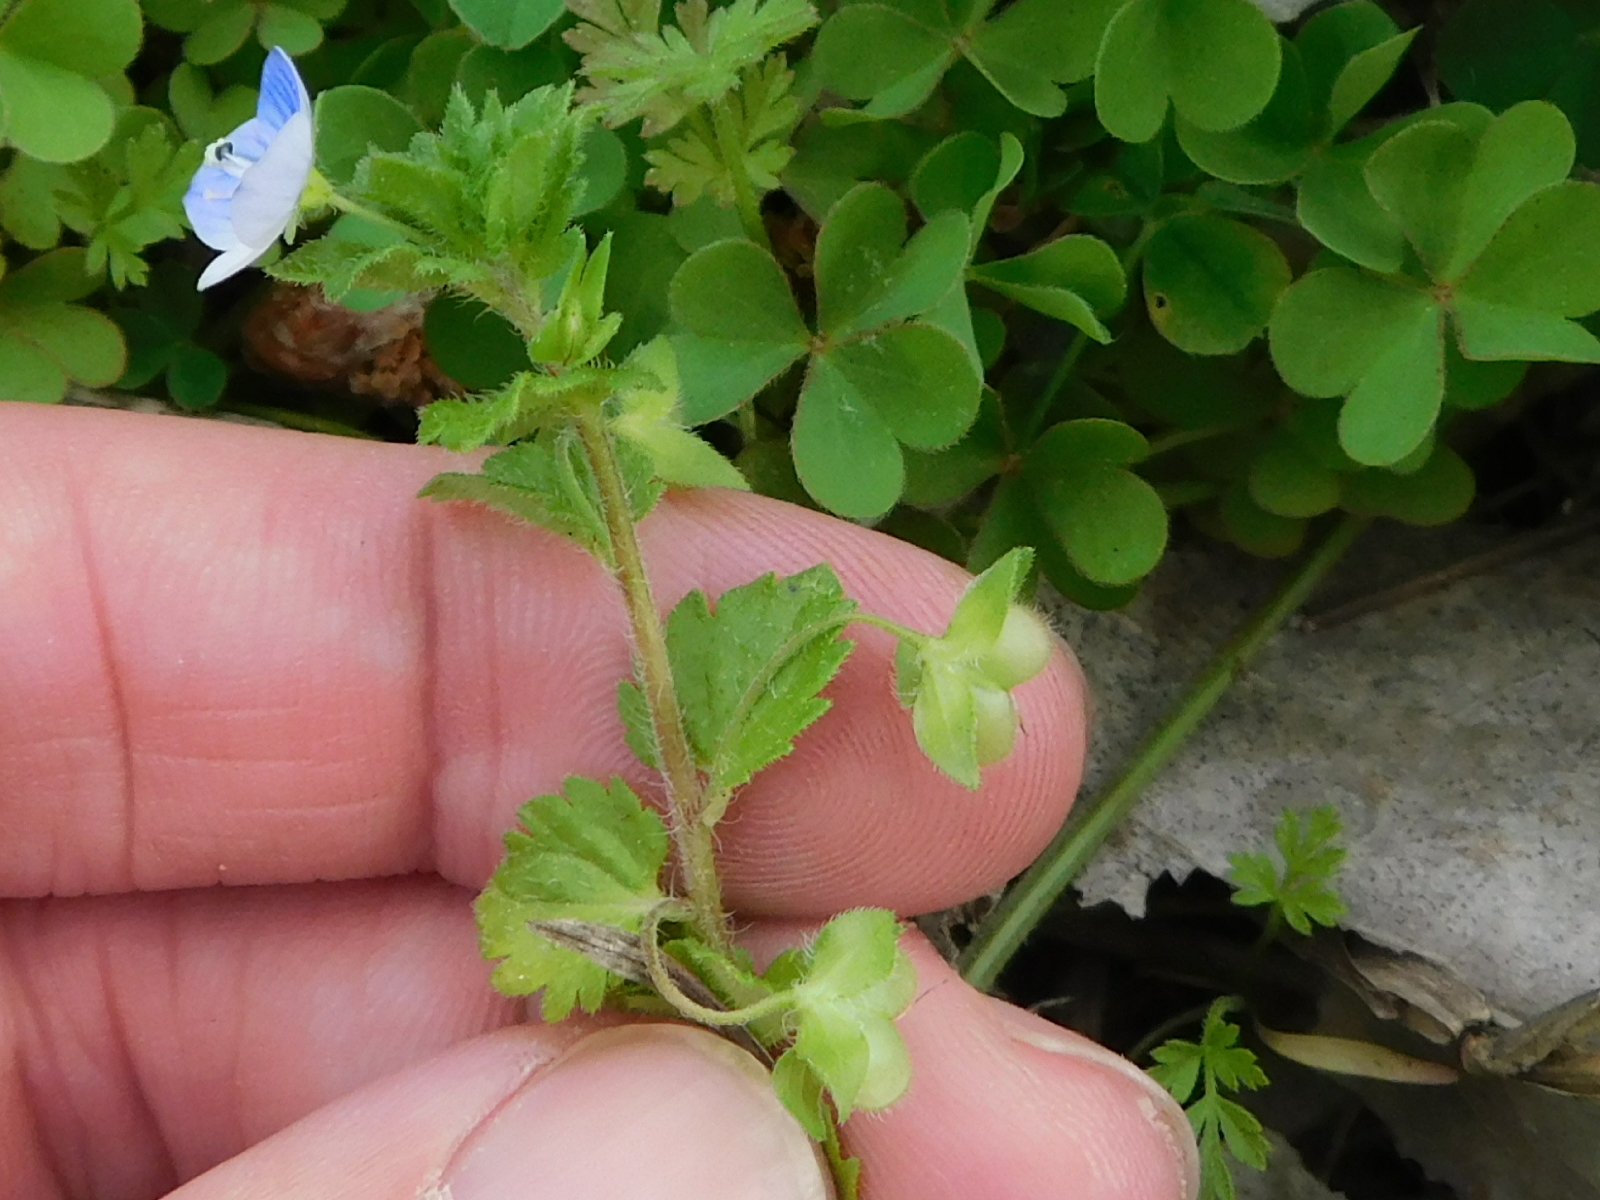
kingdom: Plantae
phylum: Tracheophyta
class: Magnoliopsida
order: Lamiales
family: Plantaginaceae
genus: Veronica
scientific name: Veronica persica
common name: Common field-speedwell
